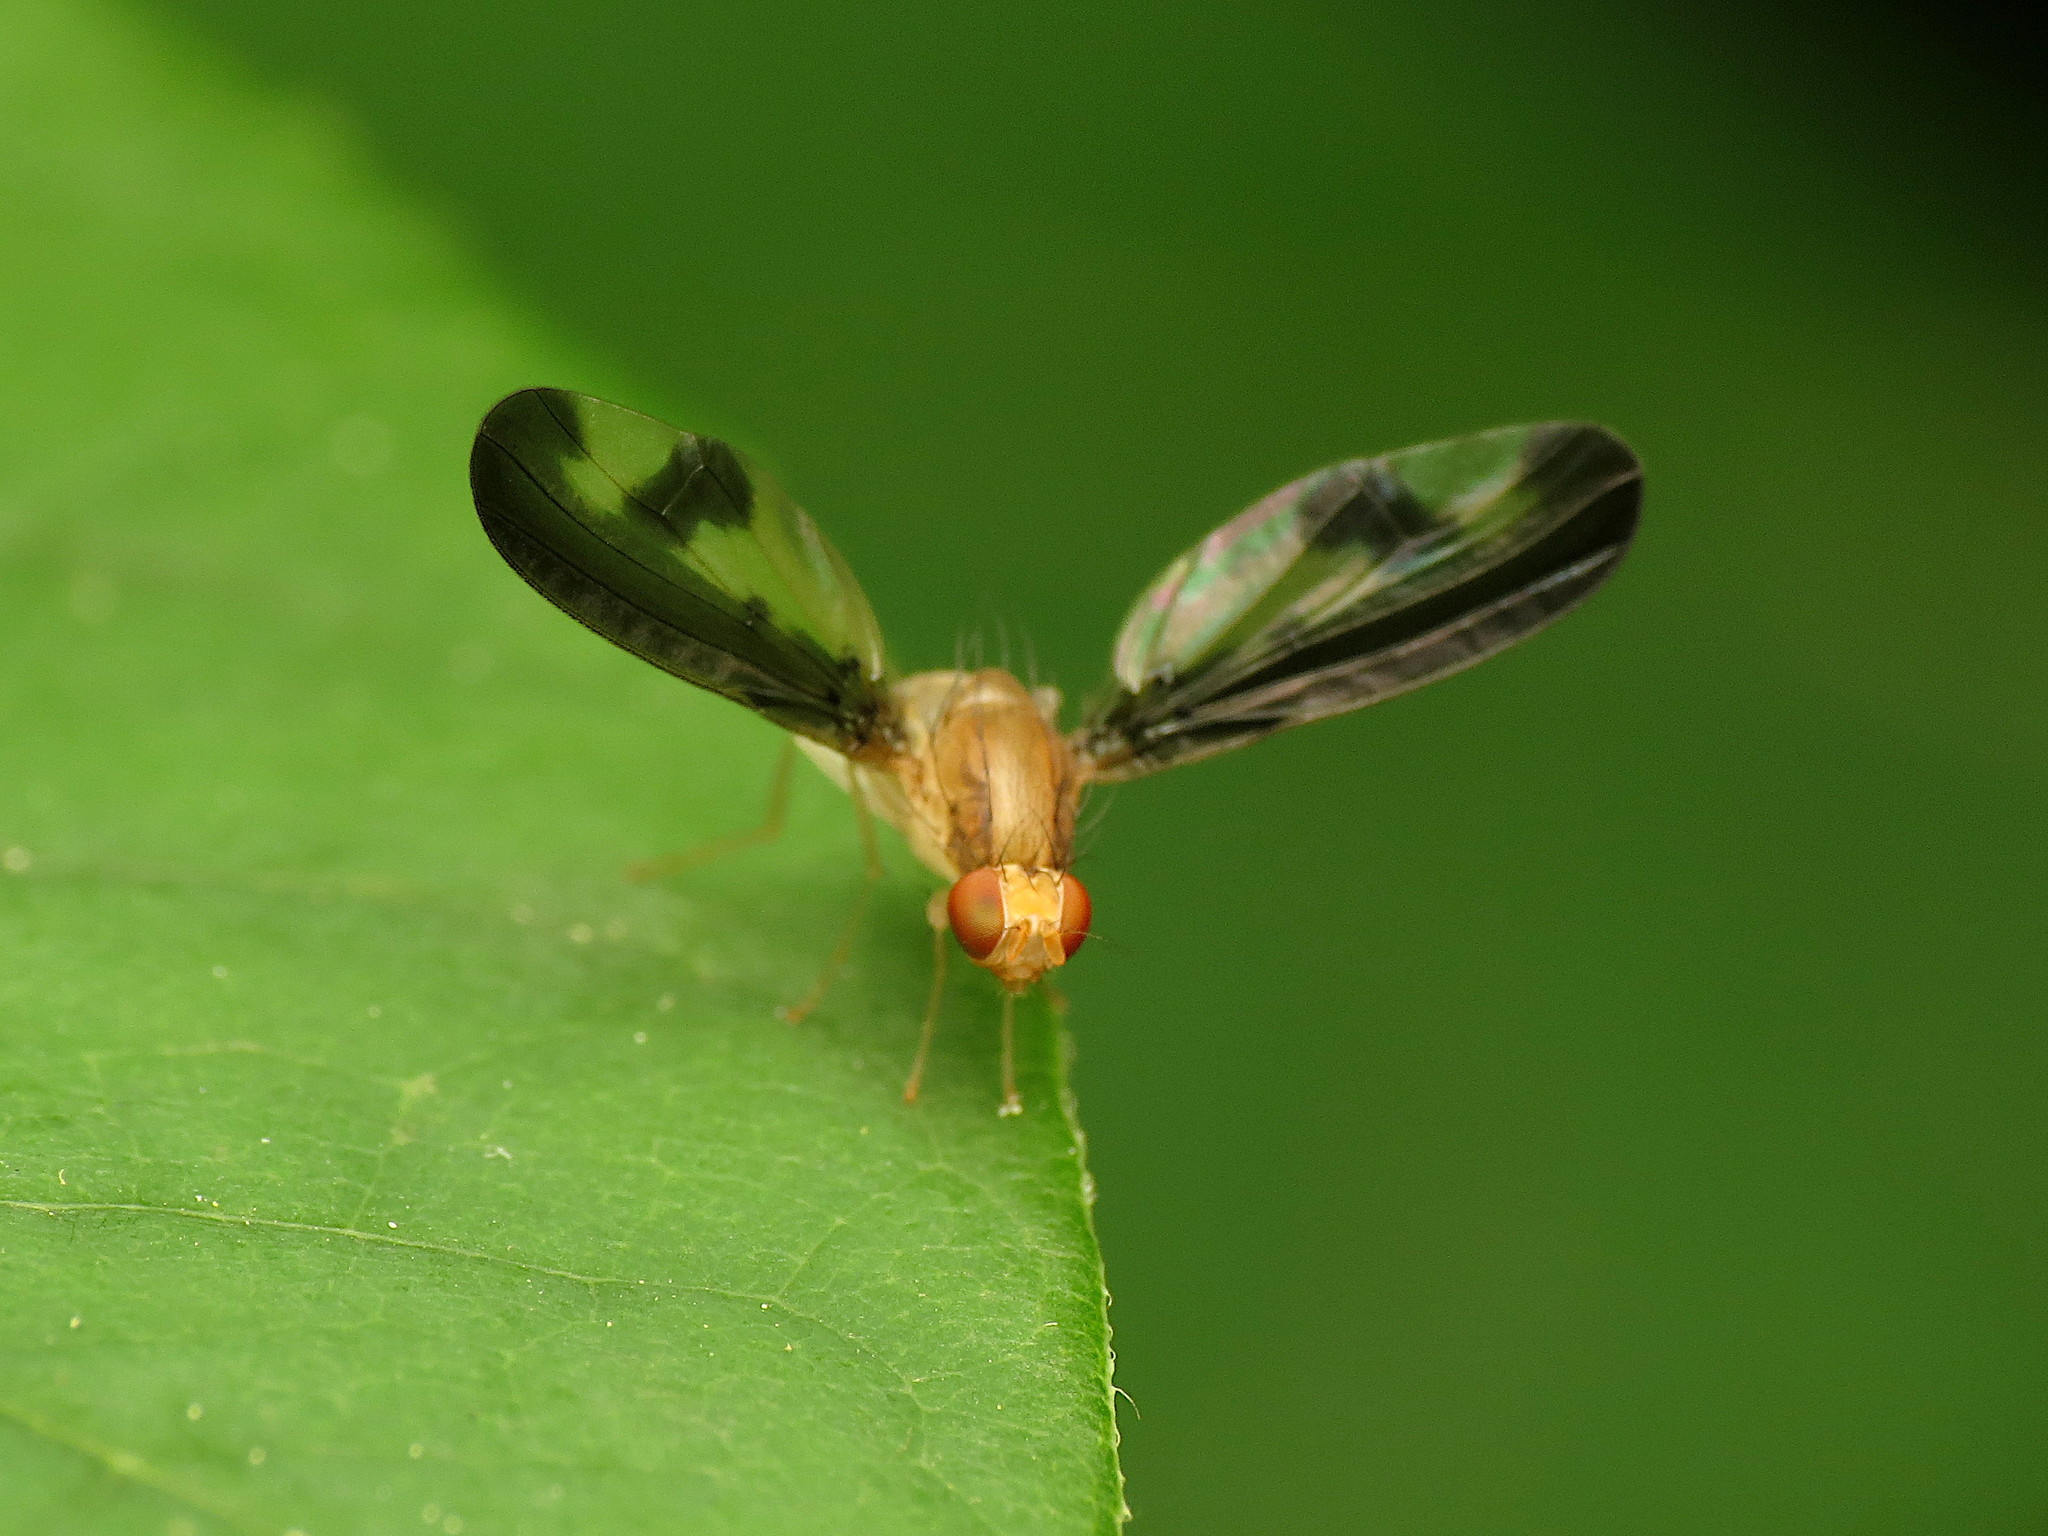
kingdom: Animalia
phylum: Arthropoda
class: Insecta
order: Diptera
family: Pallopteridae
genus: Toxonevra
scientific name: Toxonevra superba
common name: Antlered flutter fly
